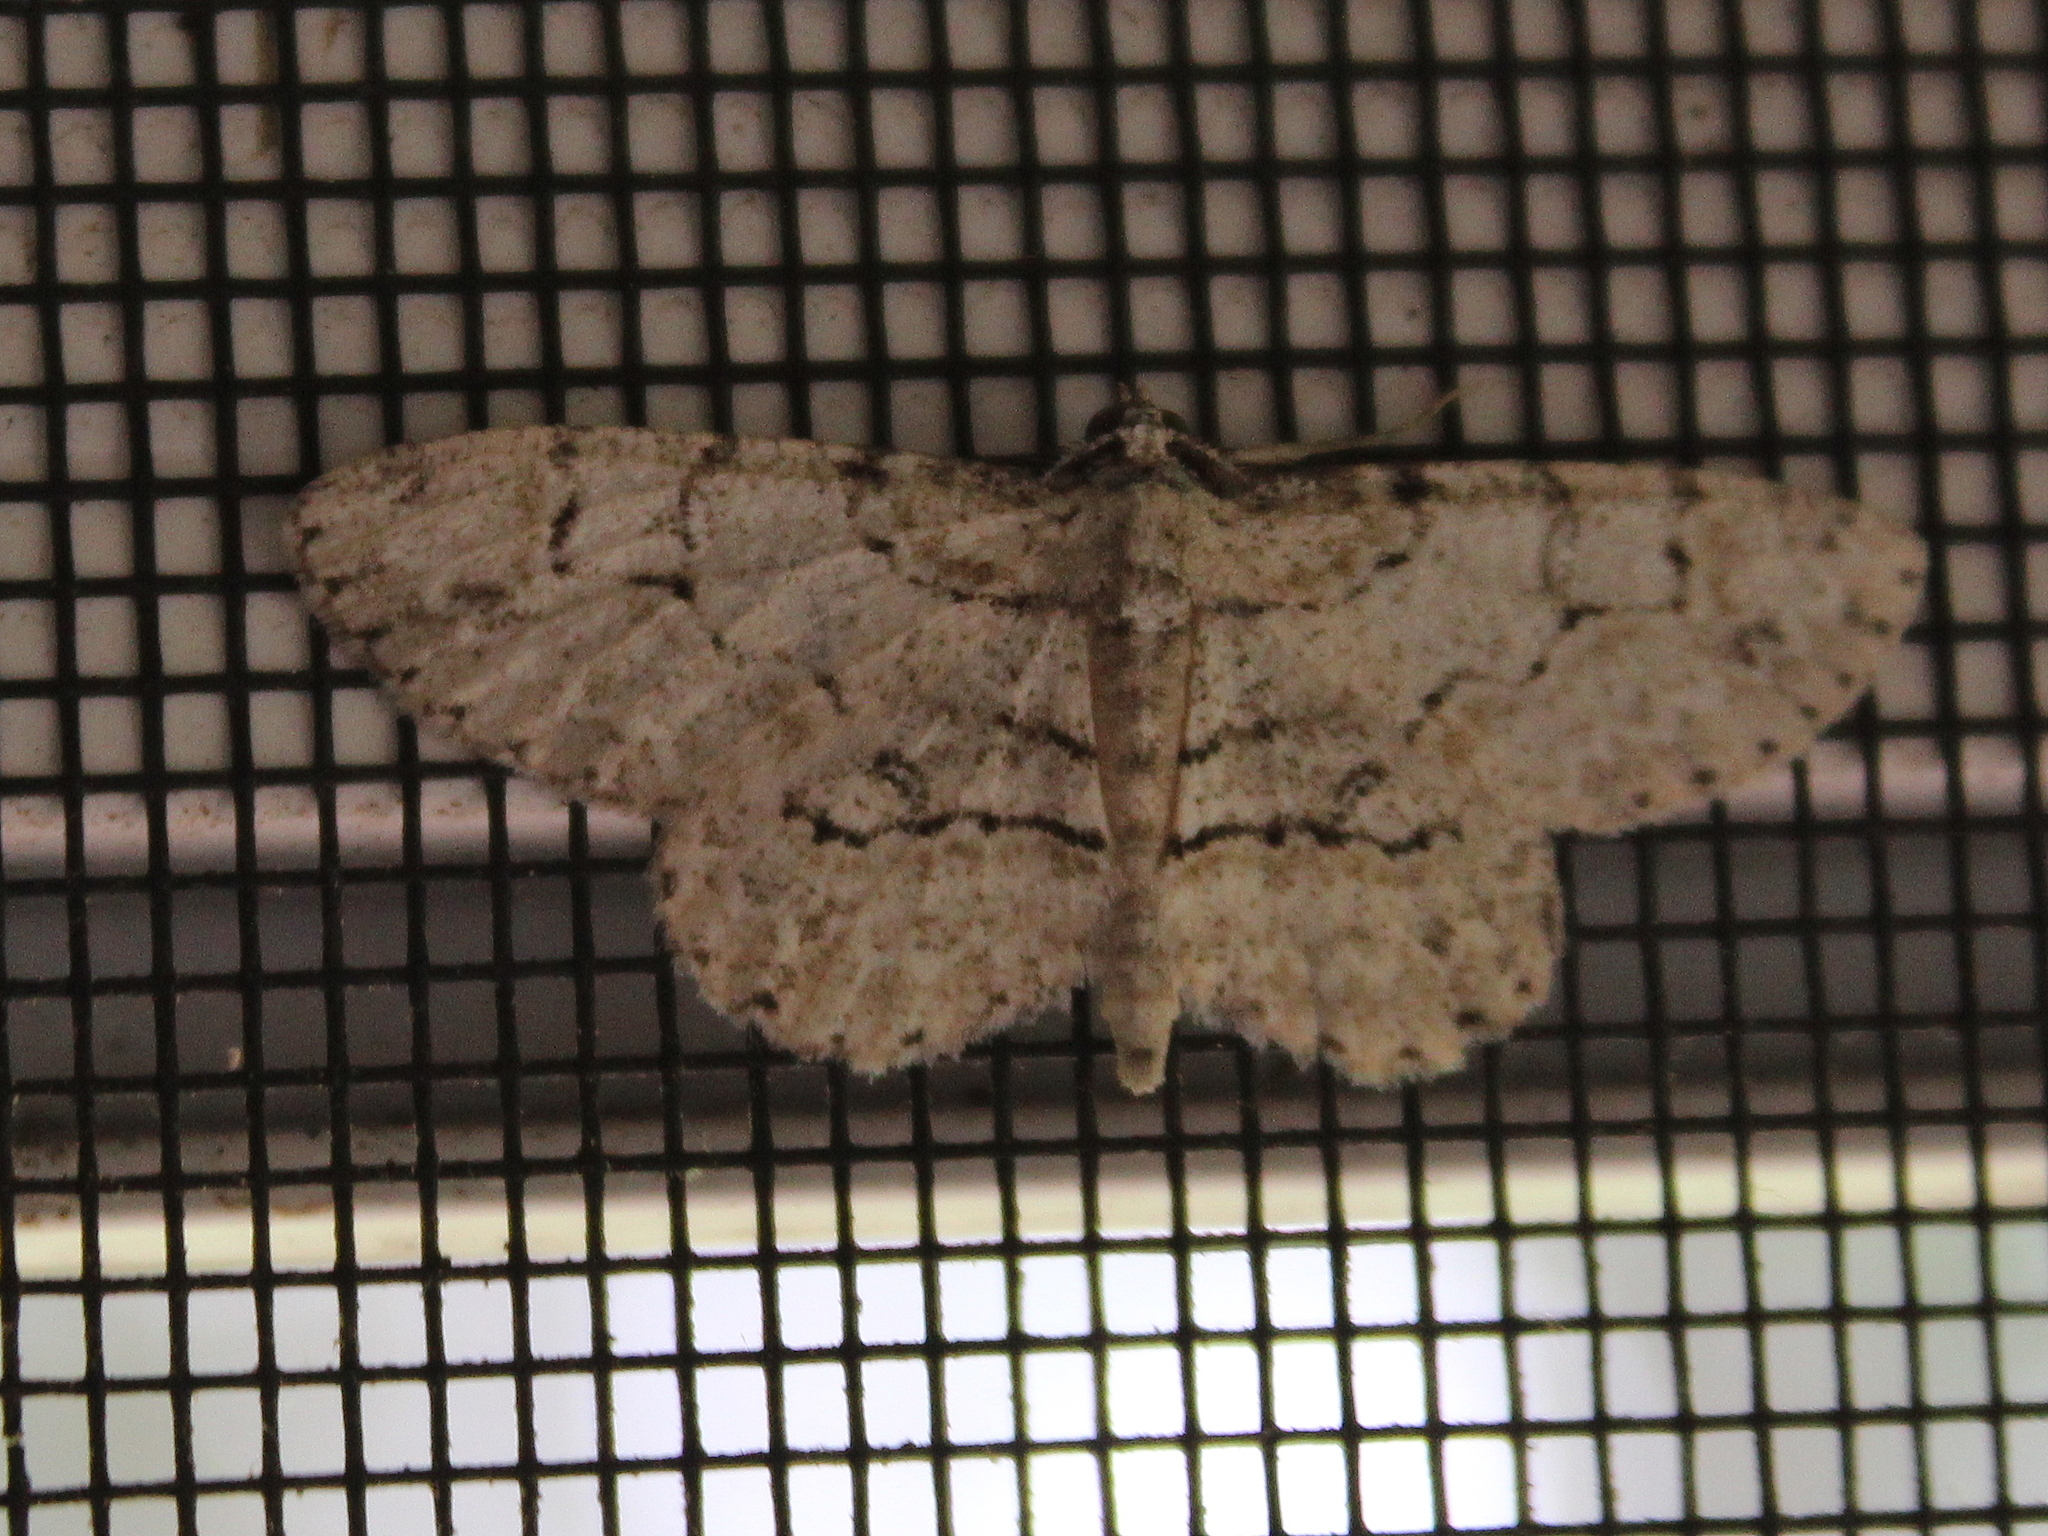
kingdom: Animalia
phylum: Arthropoda
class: Insecta
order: Lepidoptera
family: Geometridae
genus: Iridopsis
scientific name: Iridopsis ephyraria
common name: Pale-winged gray
